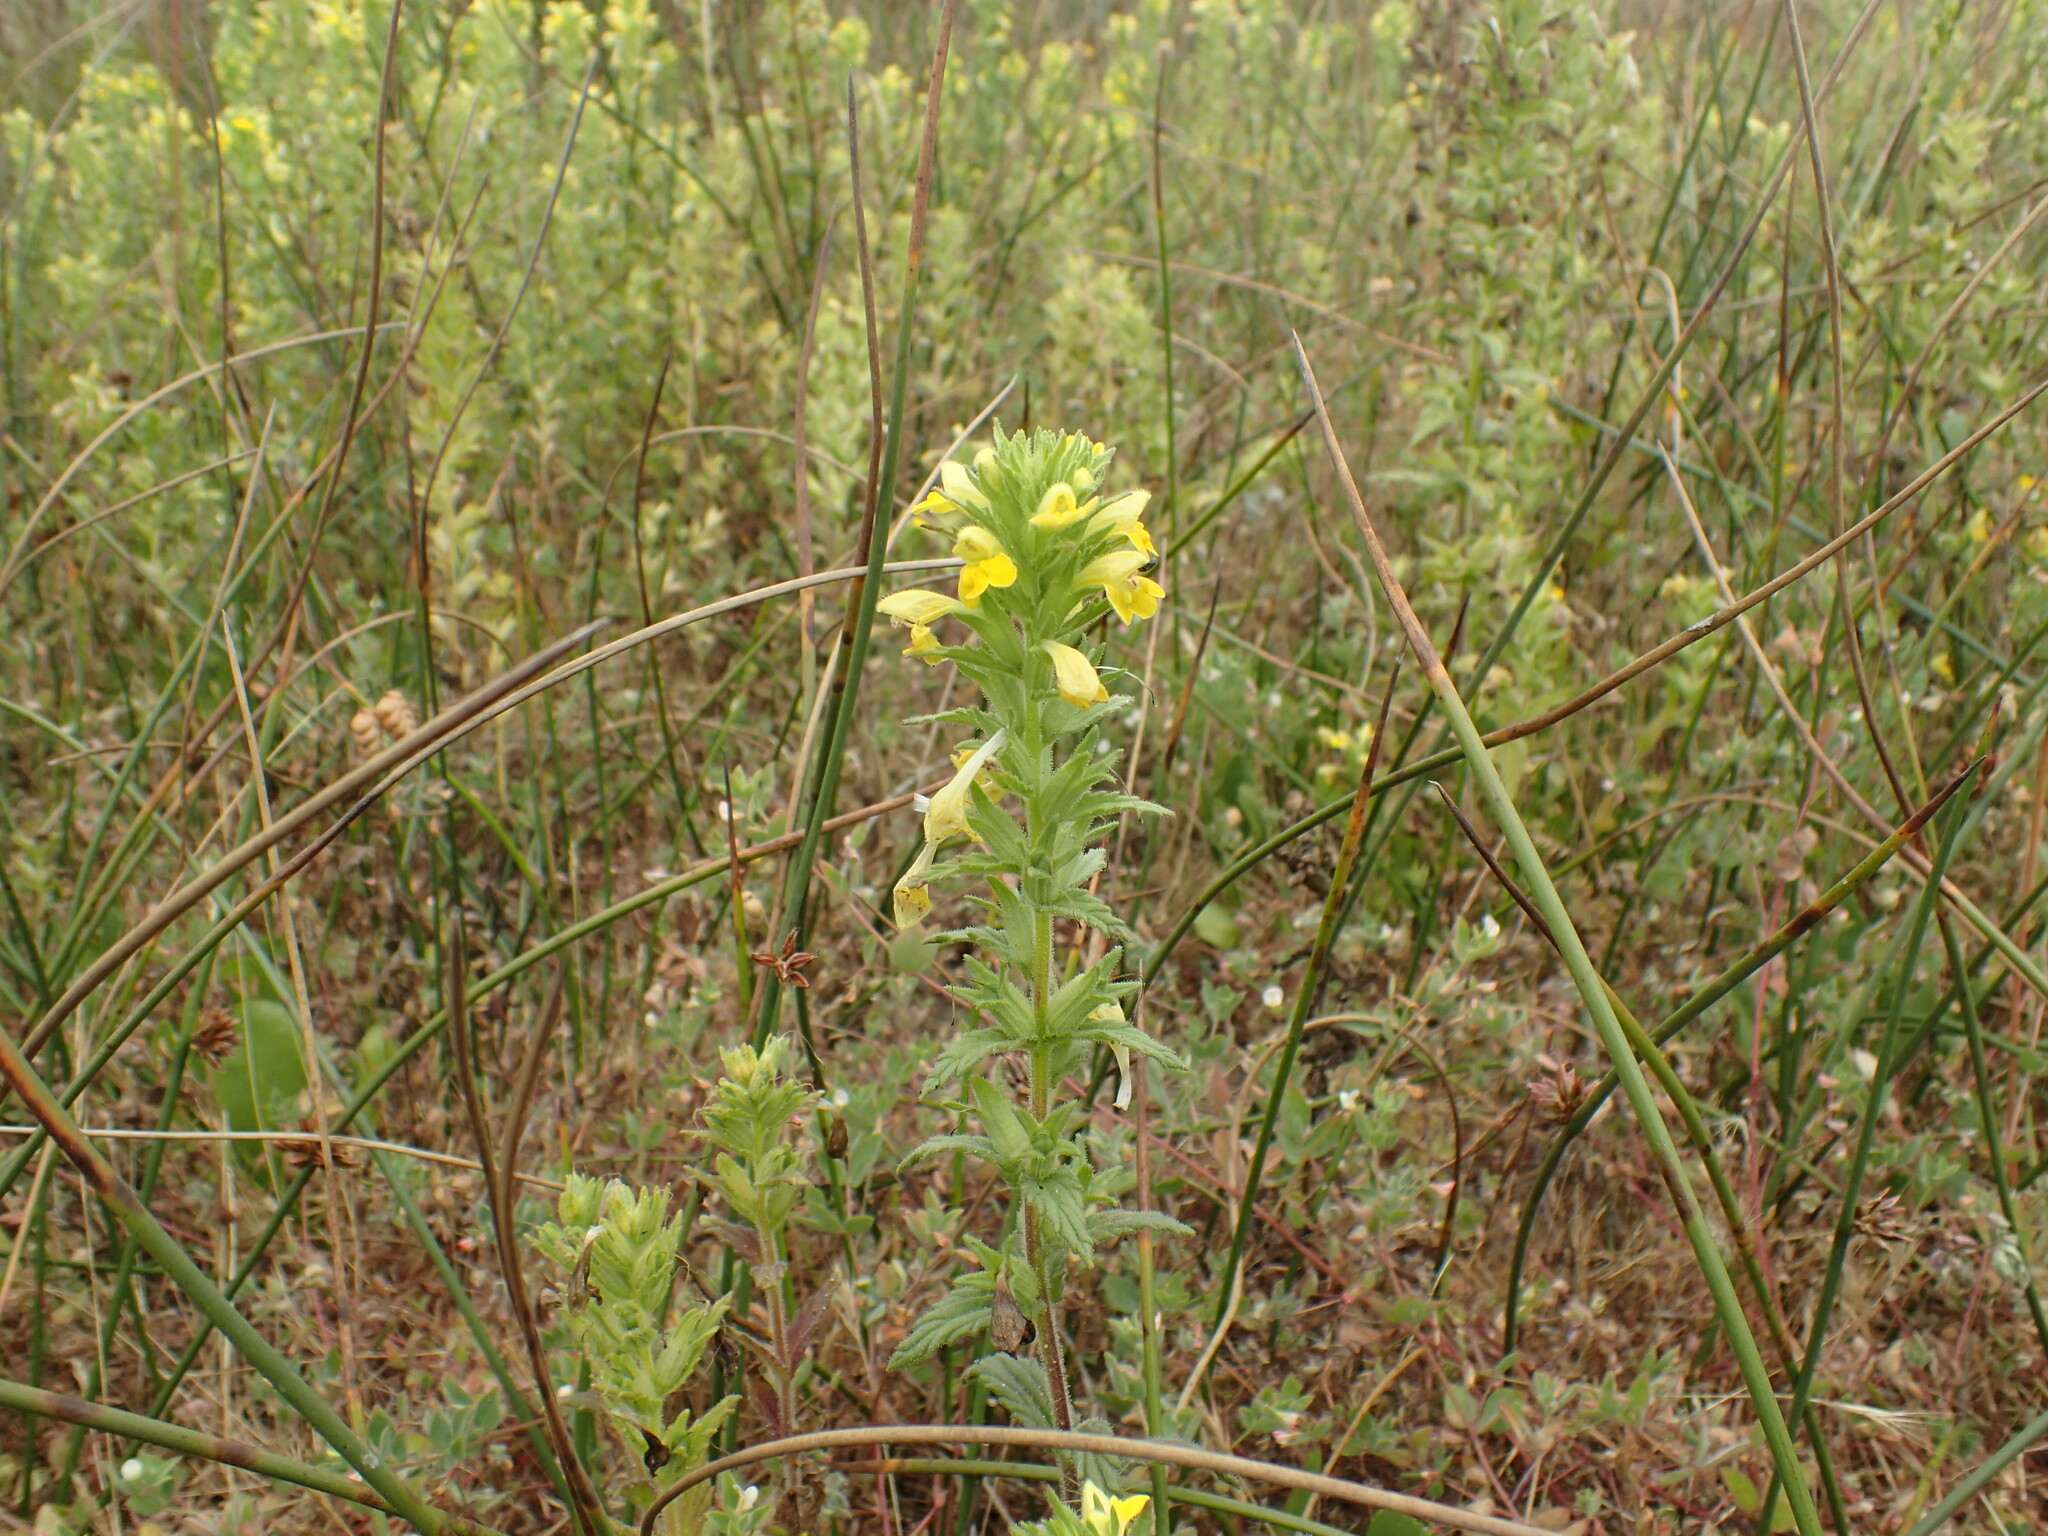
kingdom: Plantae
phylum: Tracheophyta
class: Magnoliopsida
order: Lamiales
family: Orobanchaceae
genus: Bellardia
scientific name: Bellardia viscosa
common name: Sticky parentucellia
